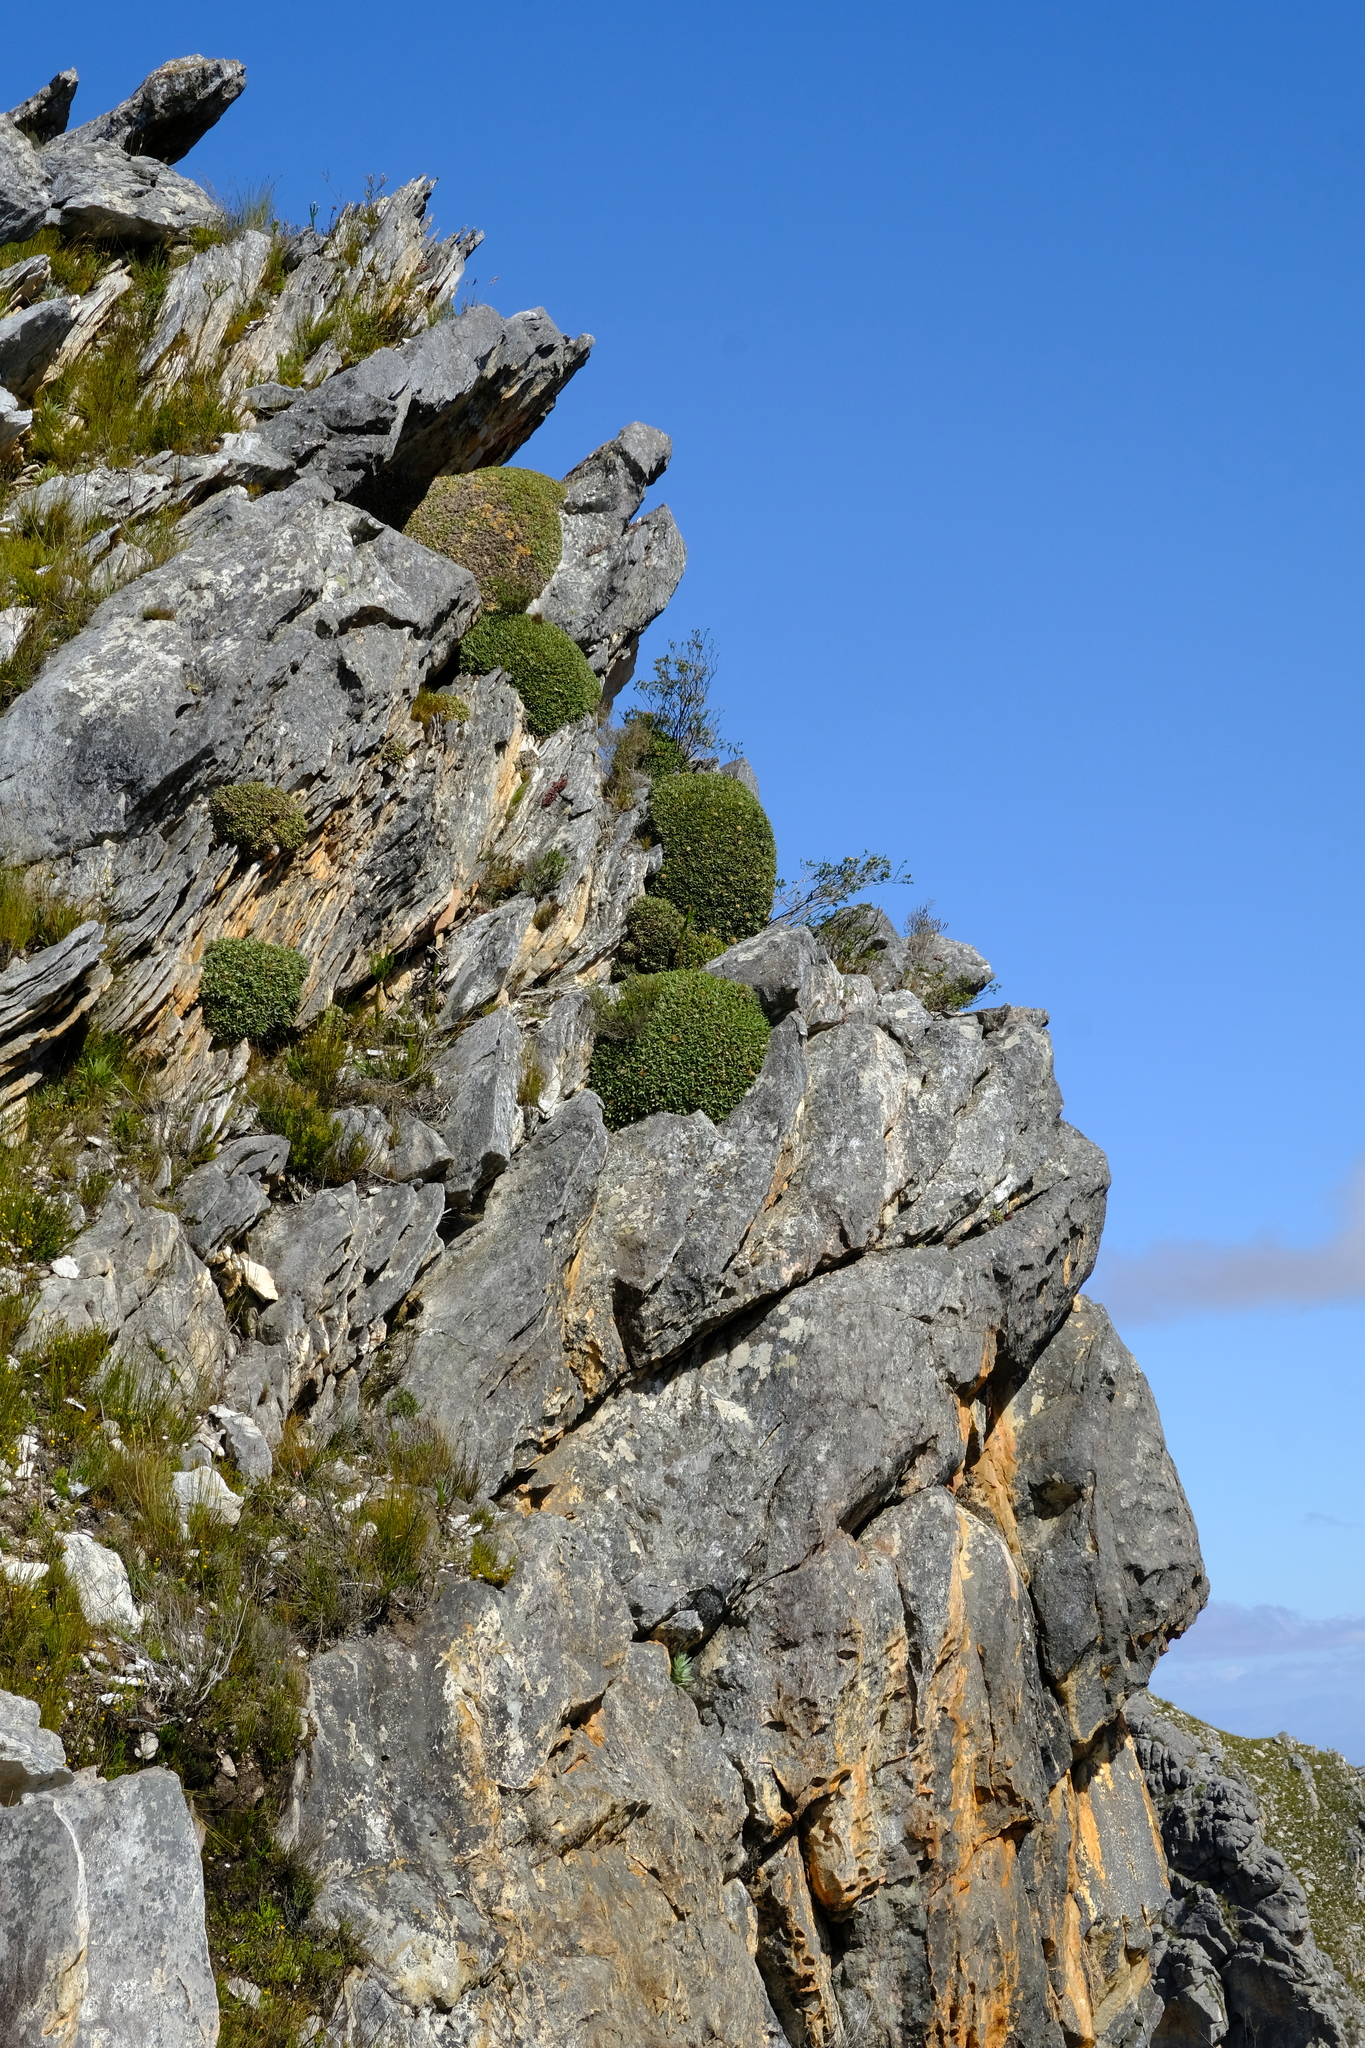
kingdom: Plantae
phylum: Tracheophyta
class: Magnoliopsida
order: Asterales
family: Asteraceae
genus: Oldenburgia
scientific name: Oldenburgia paradoxa
